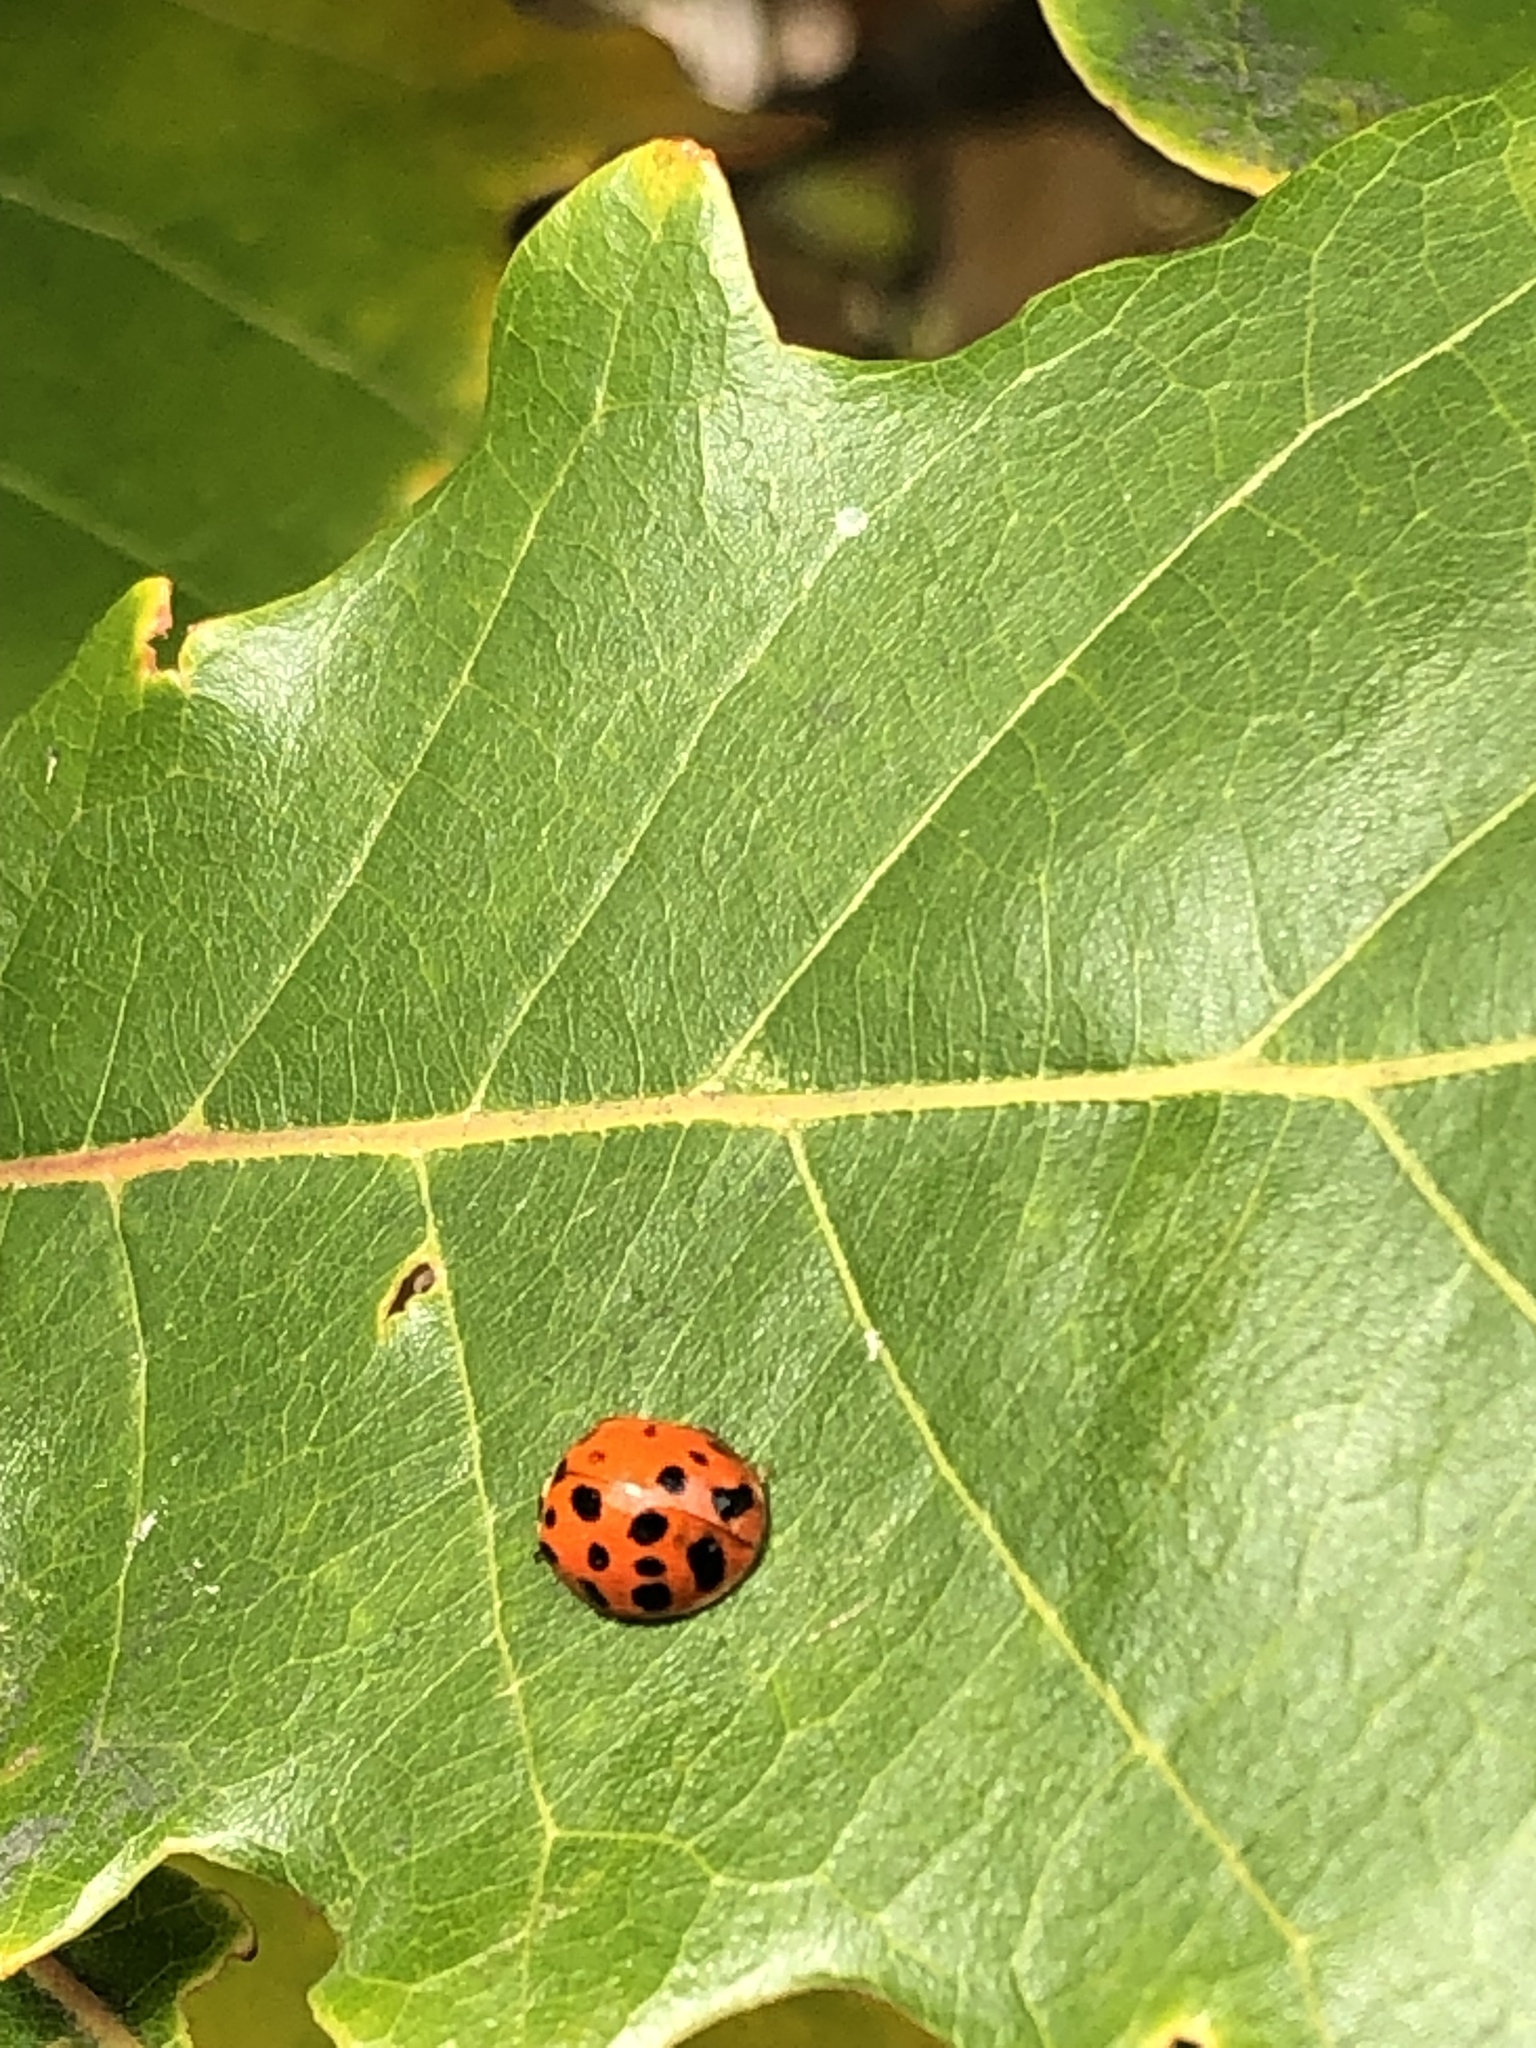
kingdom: Animalia
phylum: Arthropoda
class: Insecta
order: Coleoptera
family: Coccinellidae
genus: Harmonia
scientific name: Harmonia axyridis
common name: Harlequin ladybird
